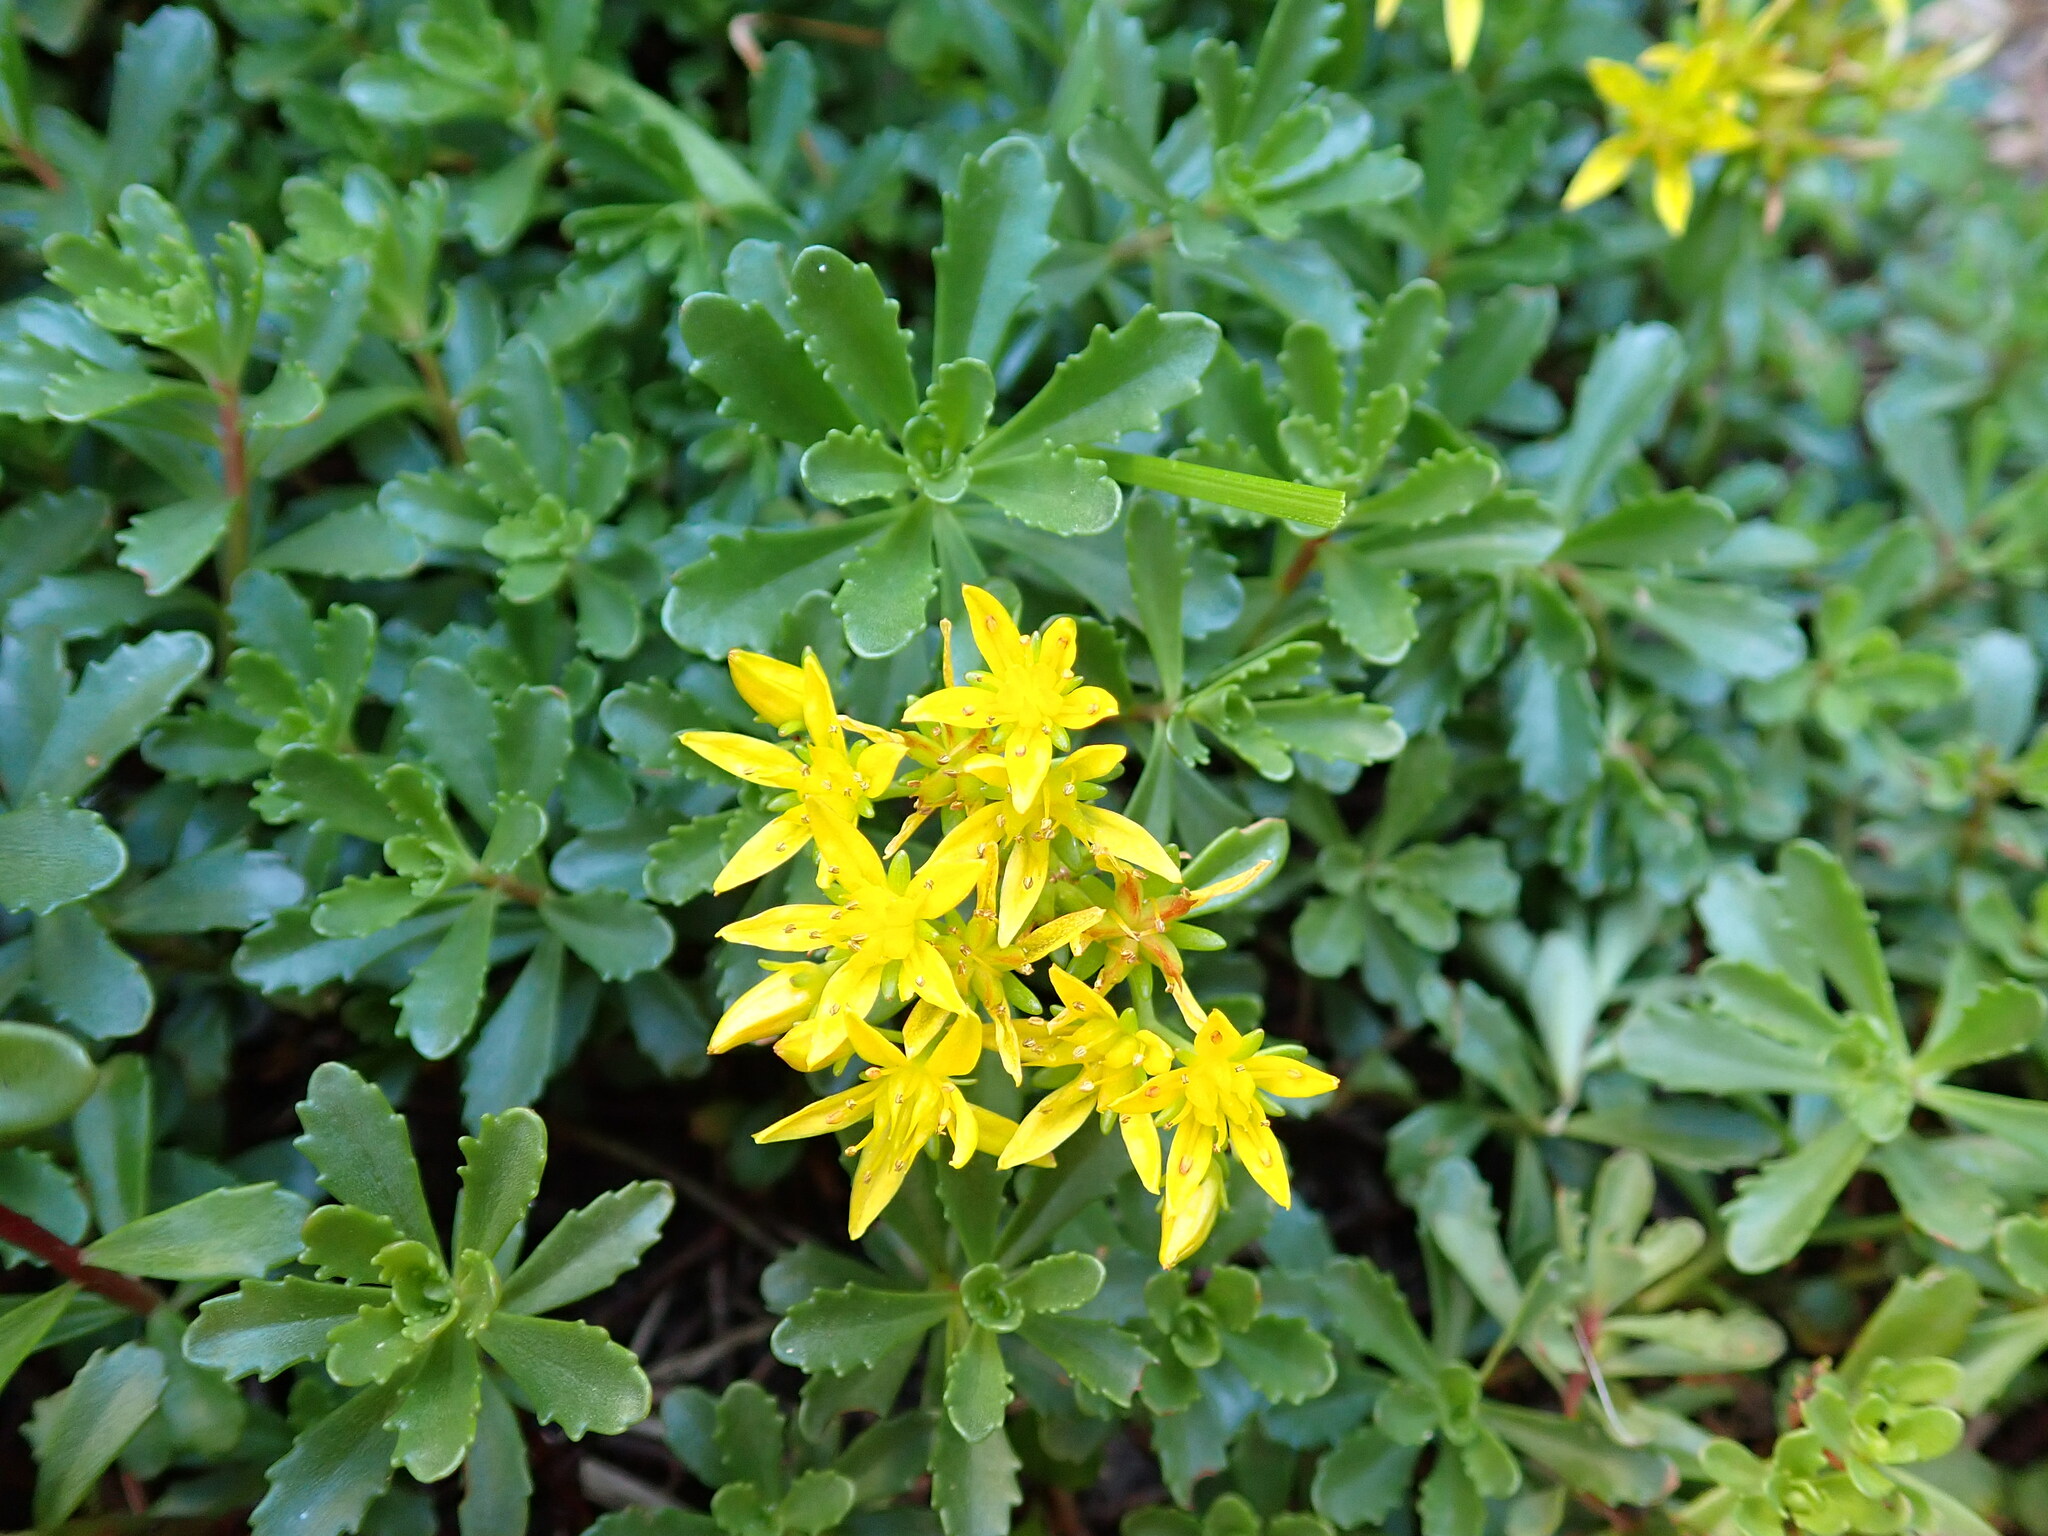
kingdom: Plantae
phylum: Tracheophyta
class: Magnoliopsida
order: Saxifragales
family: Crassulaceae
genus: Phedimus
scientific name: Phedimus hybridus
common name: Hybrid stonecrop
